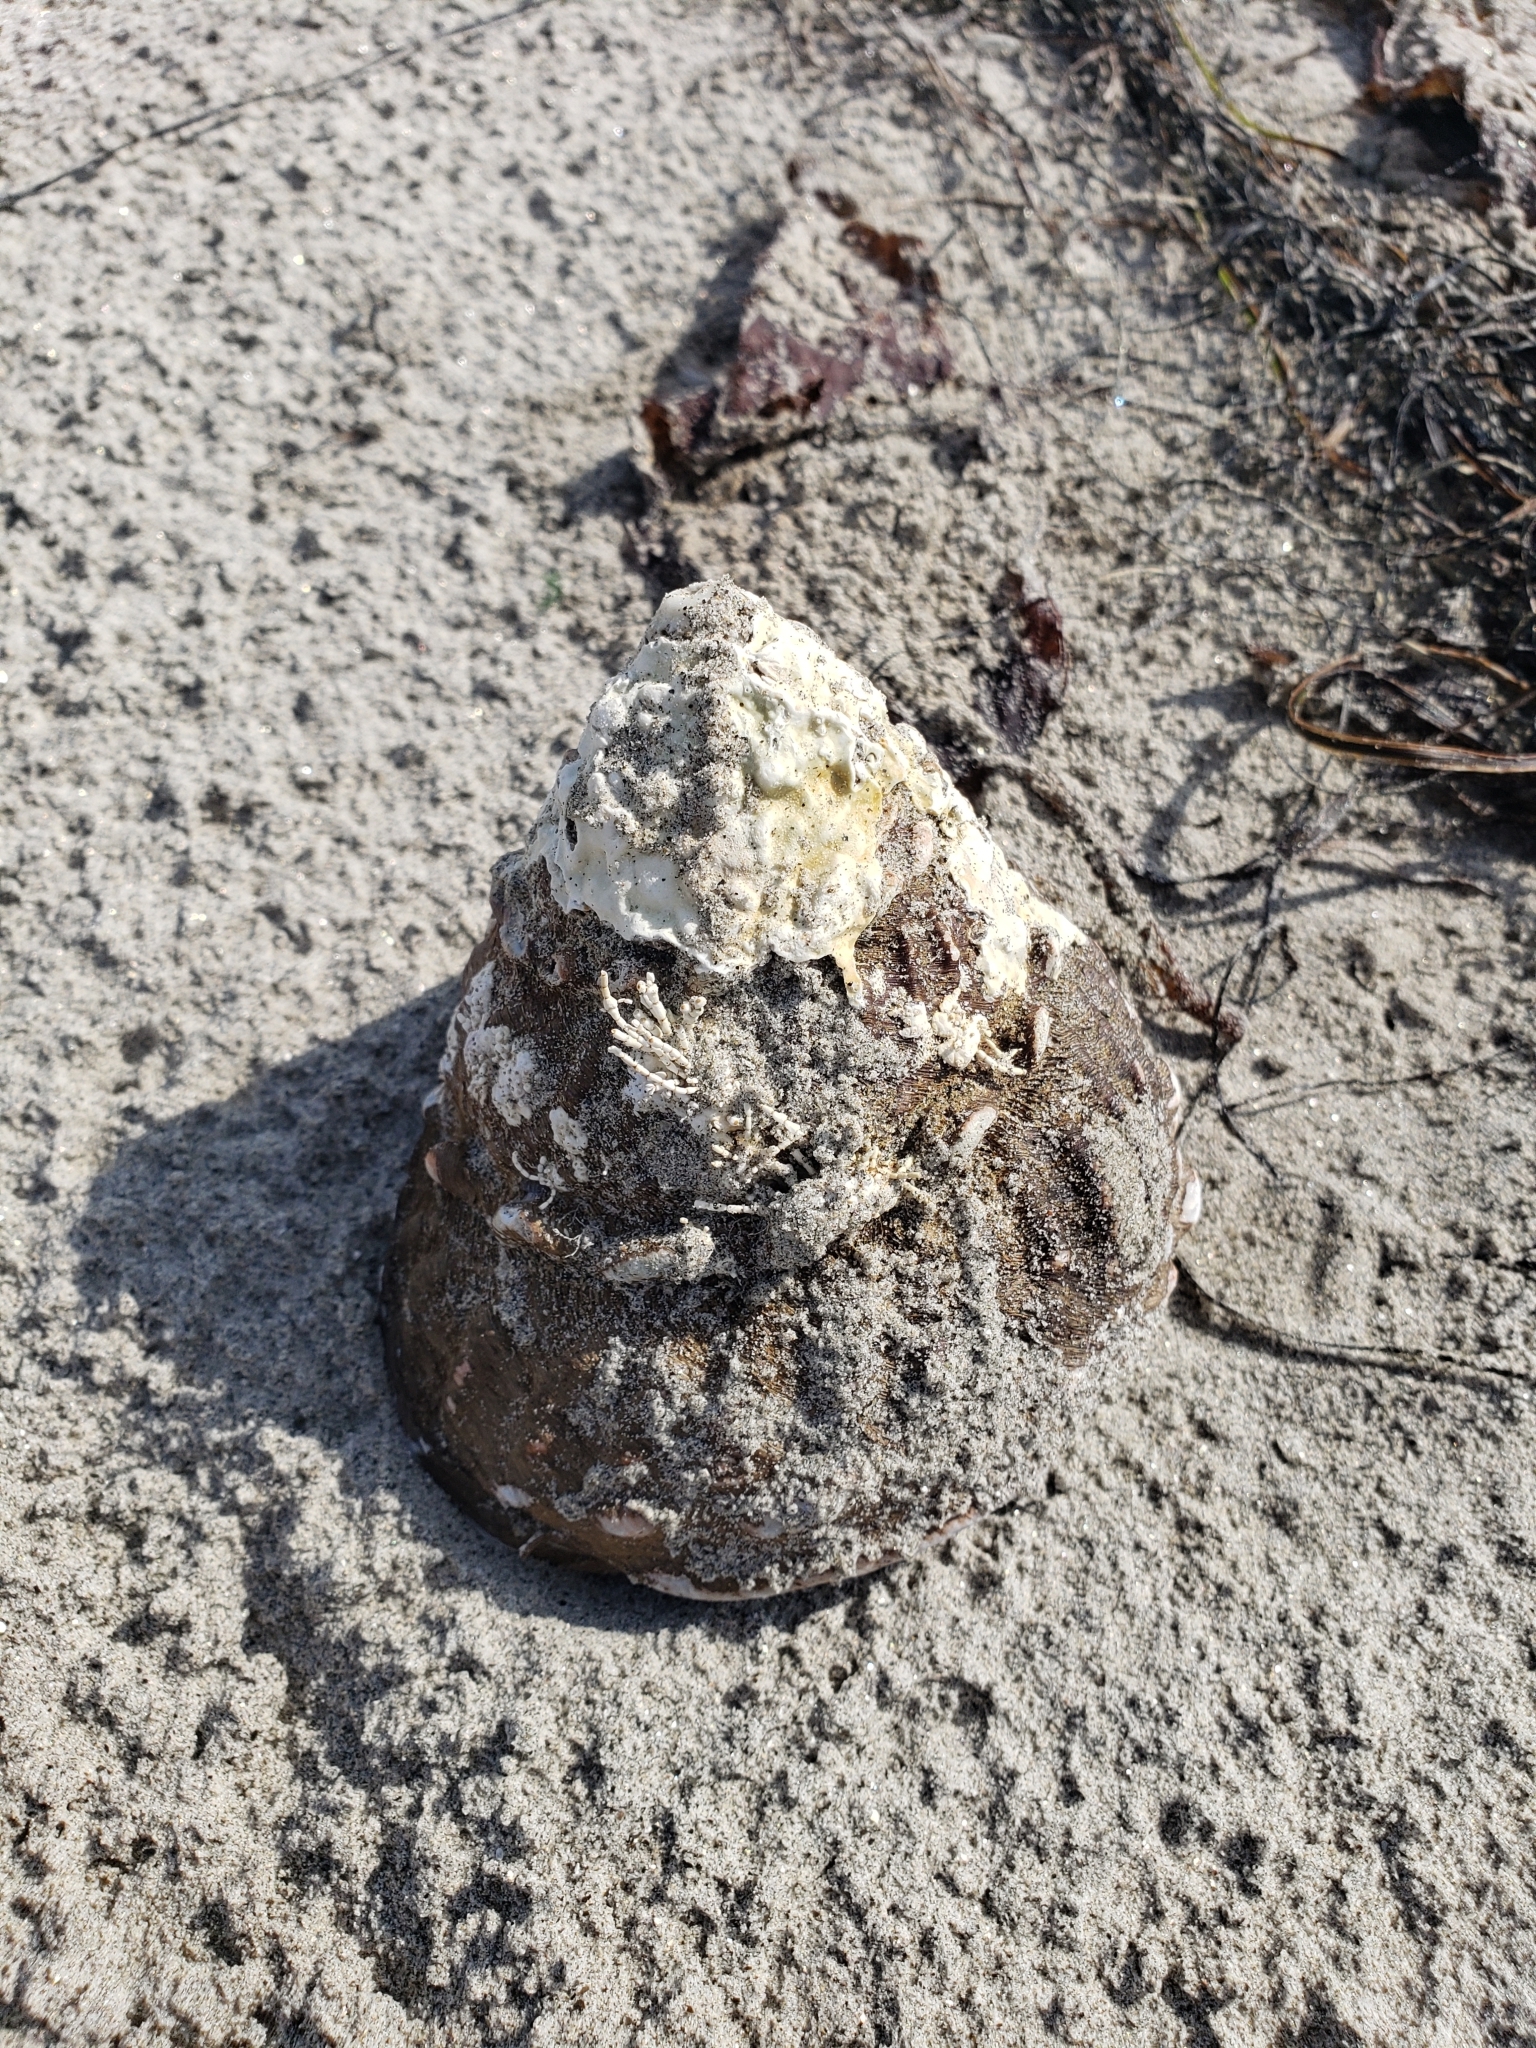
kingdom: Animalia
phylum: Mollusca
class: Gastropoda
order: Trochida
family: Turbinidae
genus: Megastraea
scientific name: Megastraea undosa
